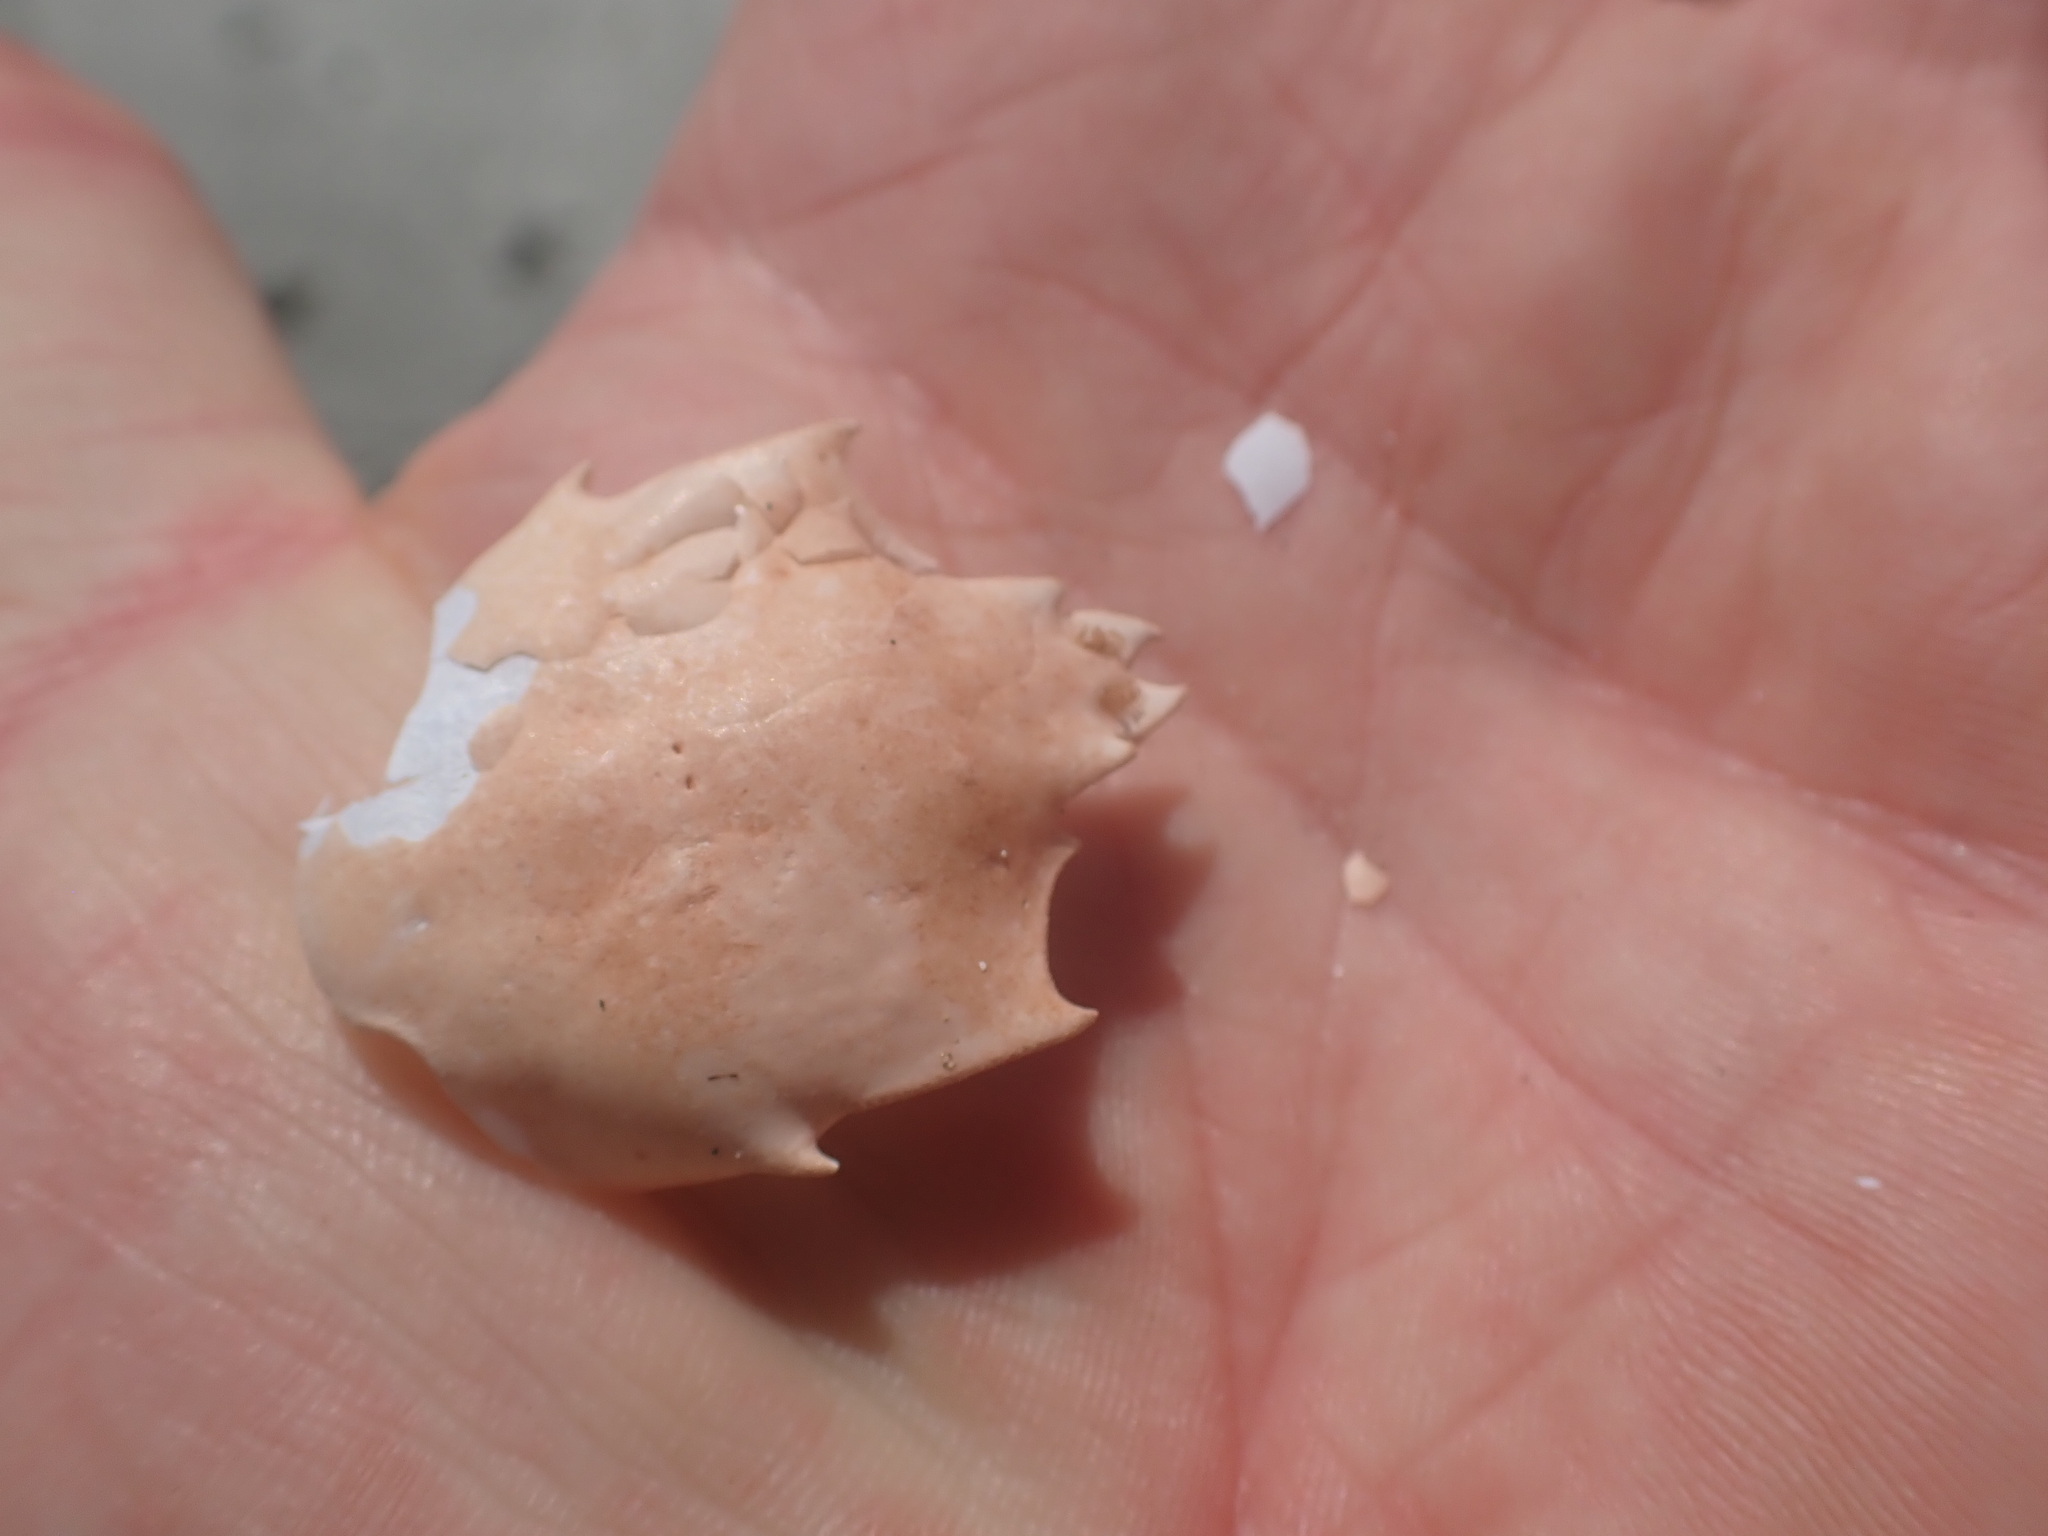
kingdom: Animalia
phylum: Arthropoda
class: Malacostraca
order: Decapoda
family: Epialtidae
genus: Pugettia
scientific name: Pugettia producta
